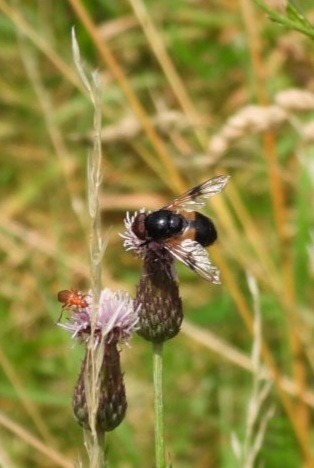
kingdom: Animalia
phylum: Arthropoda
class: Insecta
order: Diptera
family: Syrphidae
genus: Volucella
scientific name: Volucella pellucens
